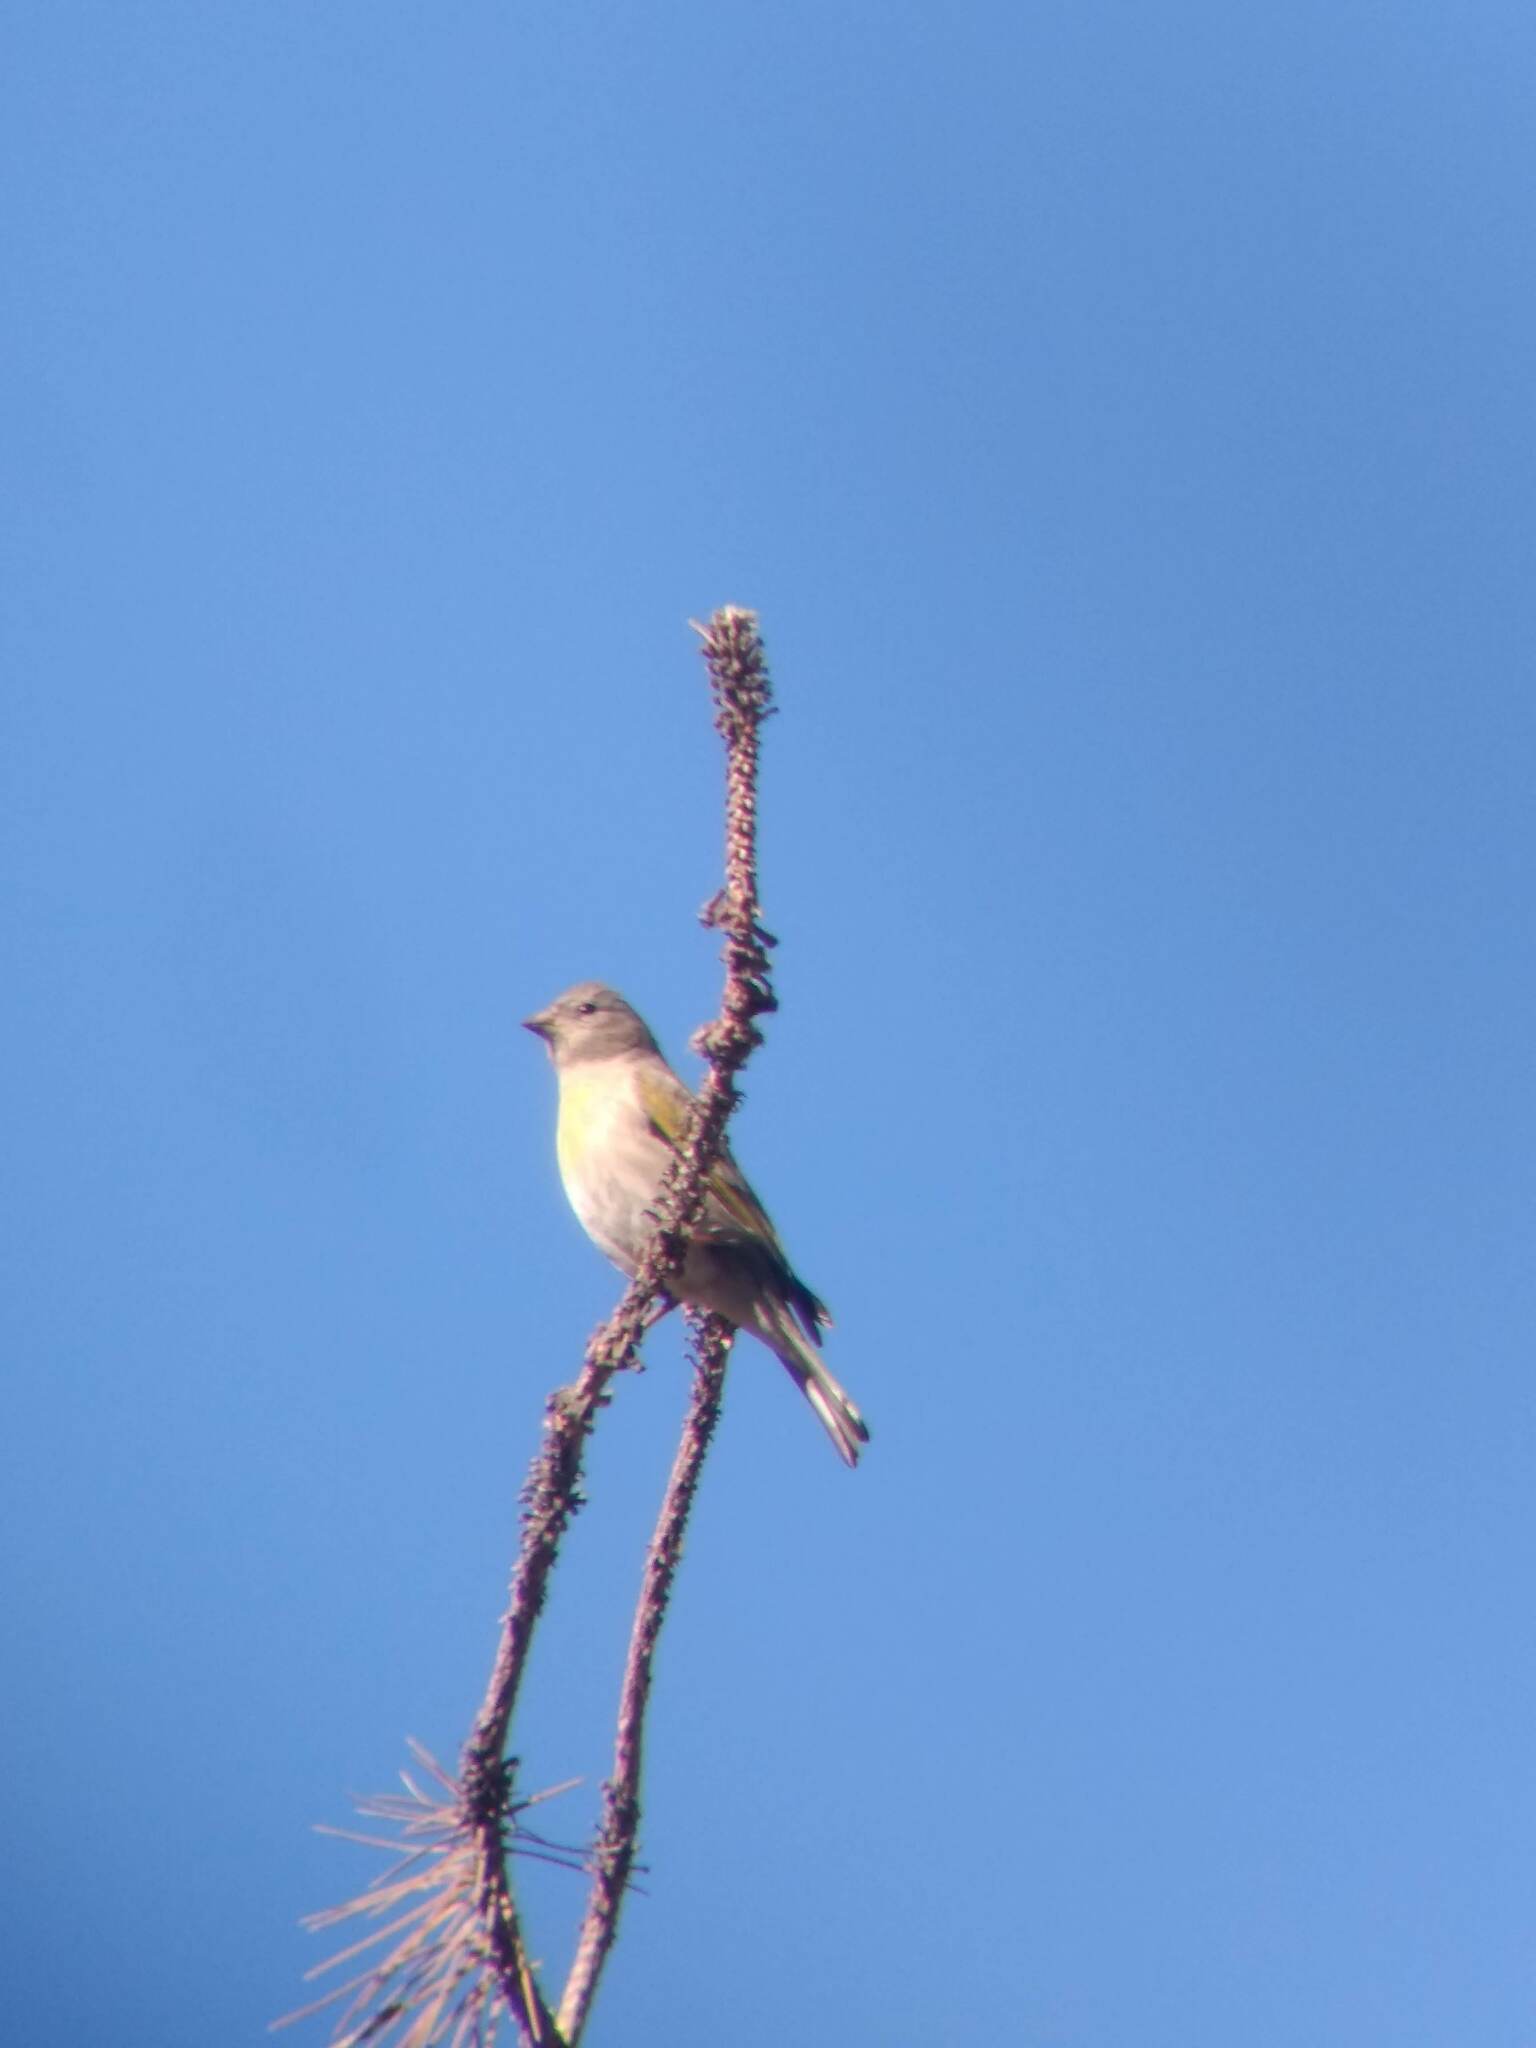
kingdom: Animalia
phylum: Chordata
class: Aves
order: Passeriformes
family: Fringillidae
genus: Spinus
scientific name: Spinus lawrencei
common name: Lawrence's goldfinch
